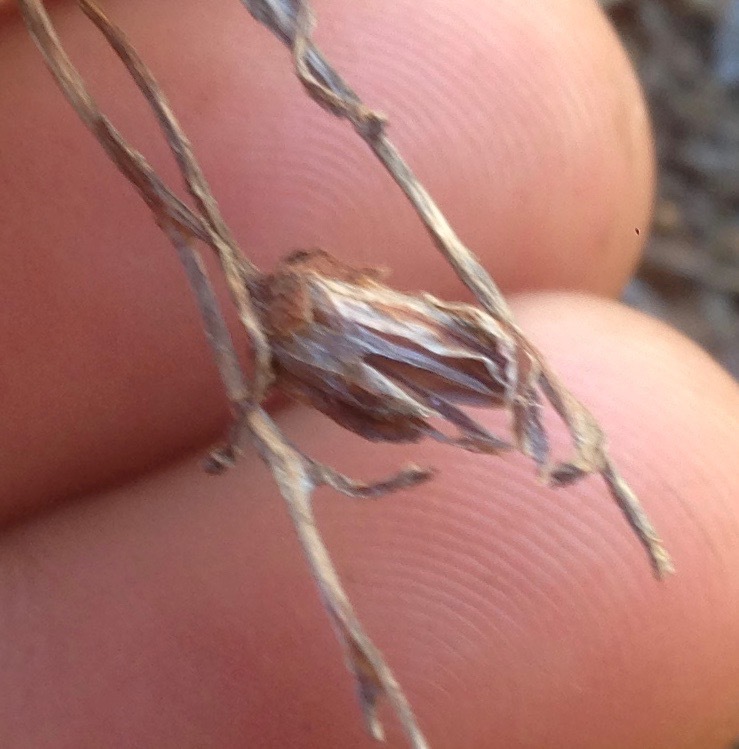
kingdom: Plantae
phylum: Tracheophyta
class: Magnoliopsida
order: Saxifragales
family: Crassulaceae
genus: Dudleya
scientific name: Dudleya pauciflora
